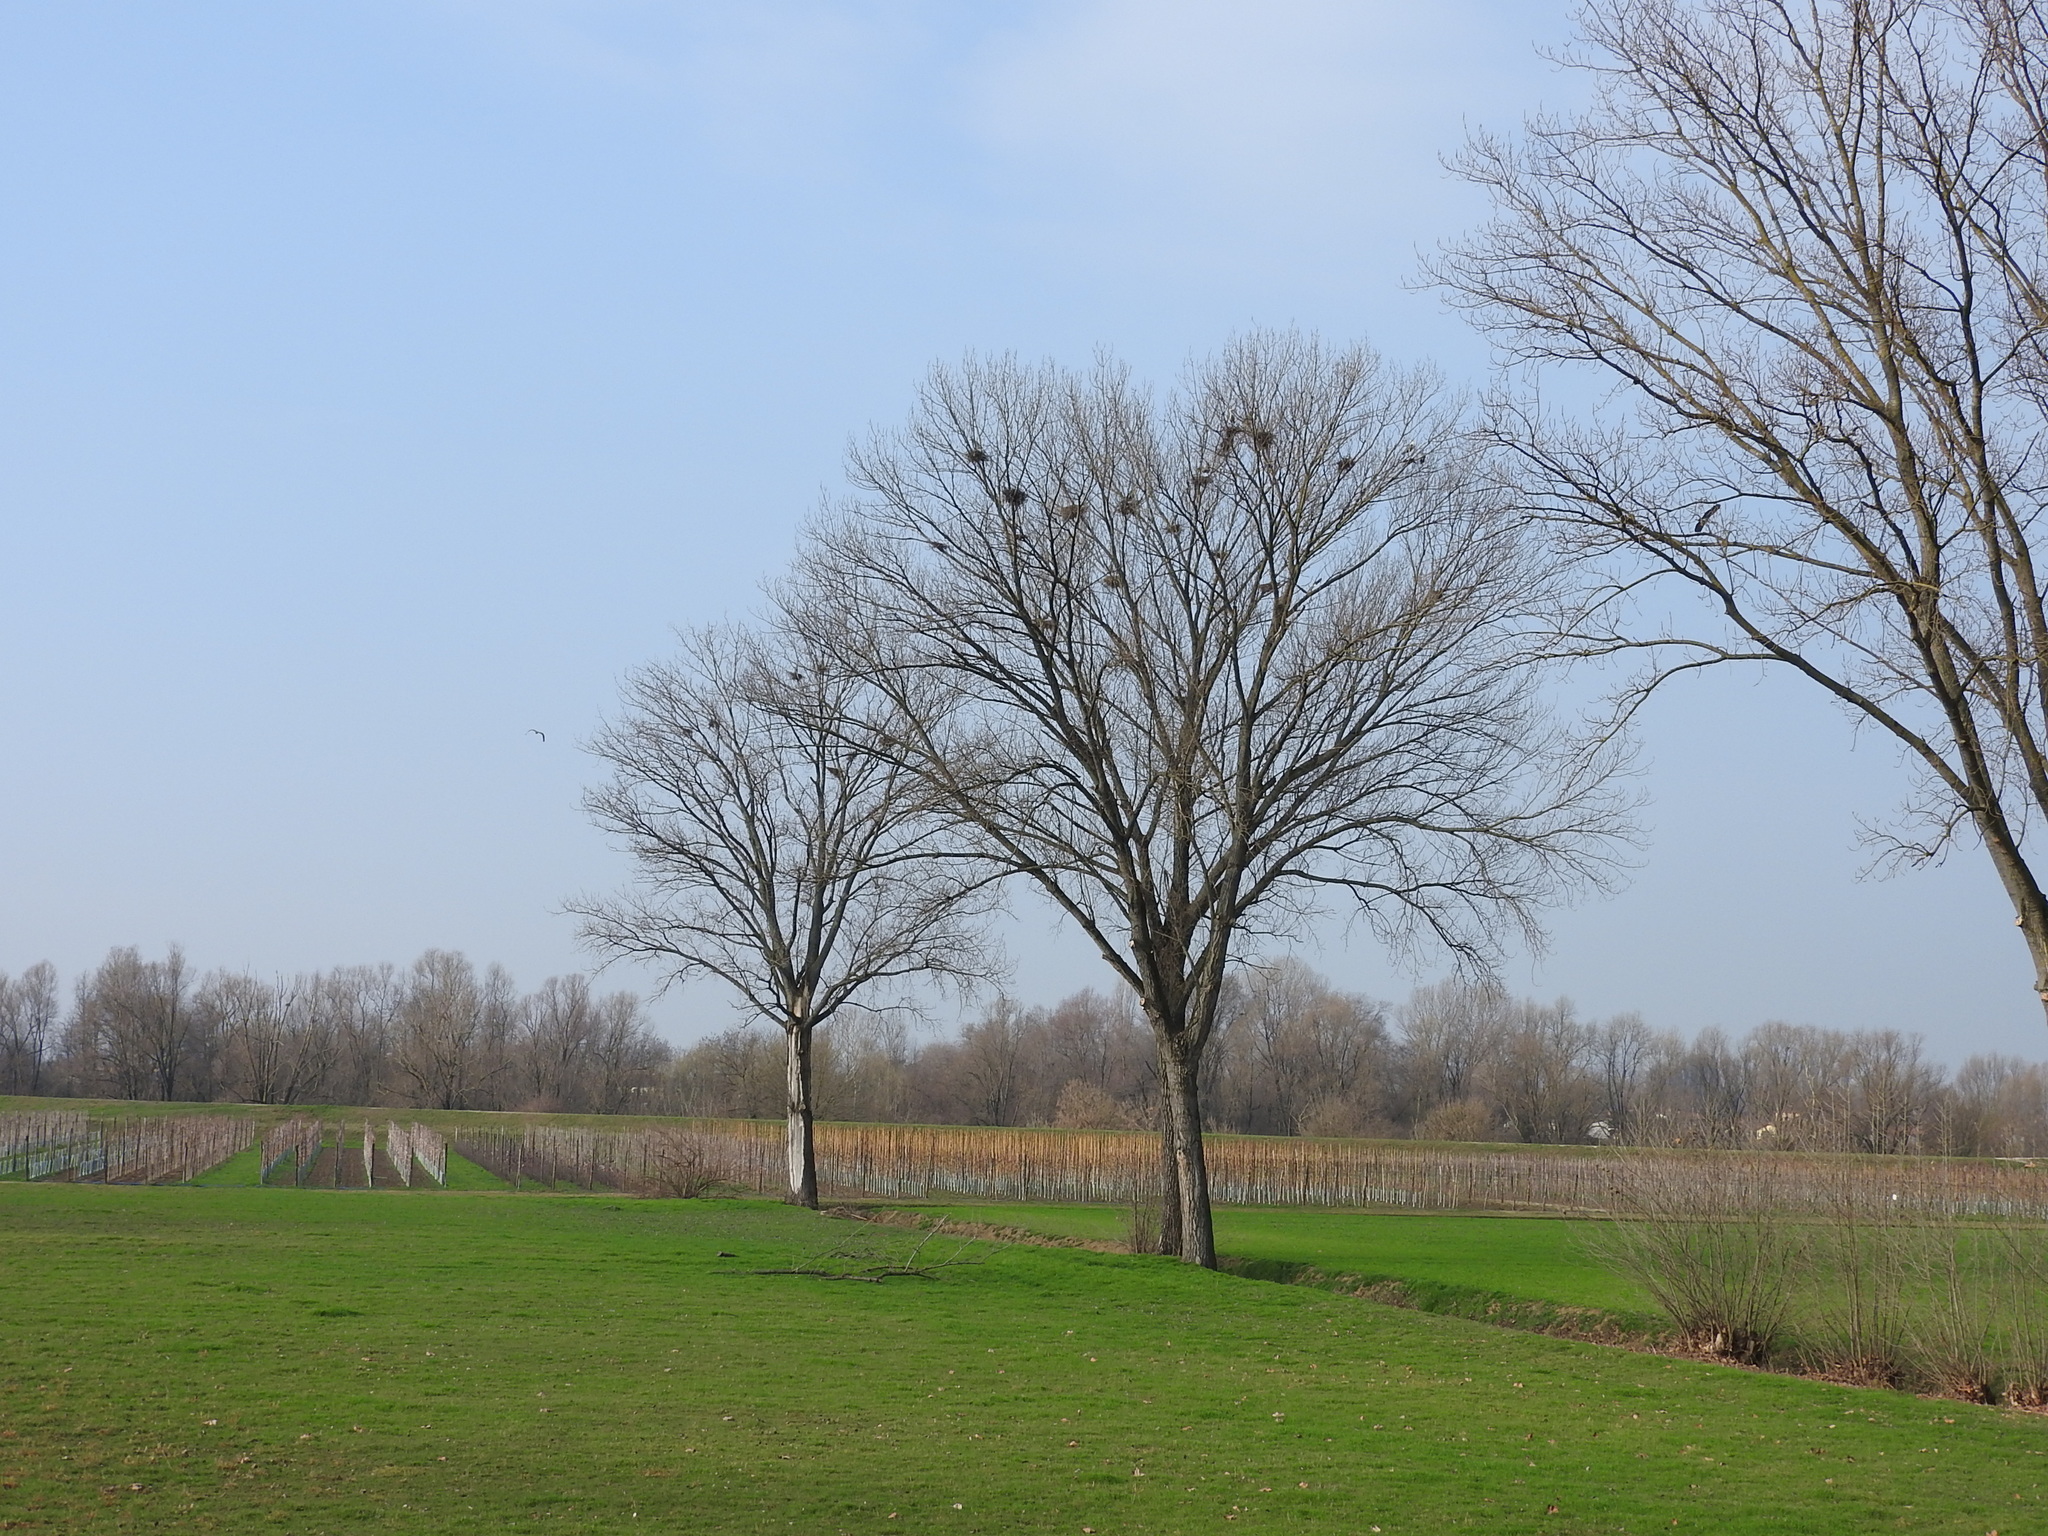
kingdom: Animalia
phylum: Chordata
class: Aves
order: Pelecaniformes
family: Ardeidae
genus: Ardea
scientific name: Ardea cinerea
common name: Grey heron
